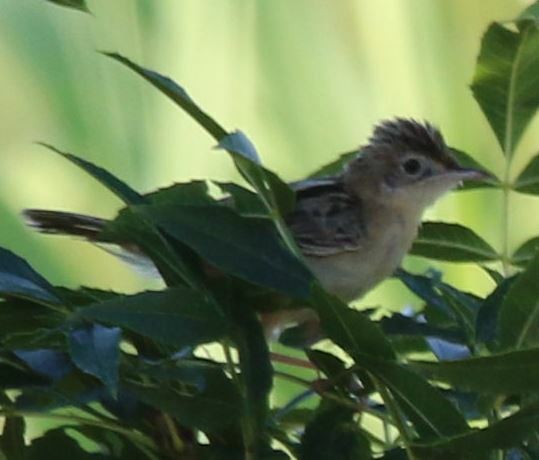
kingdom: Animalia
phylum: Chordata
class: Aves
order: Passeriformes
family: Cisticolidae
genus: Cisticola
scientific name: Cisticola juncidis
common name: Zitting cisticola
